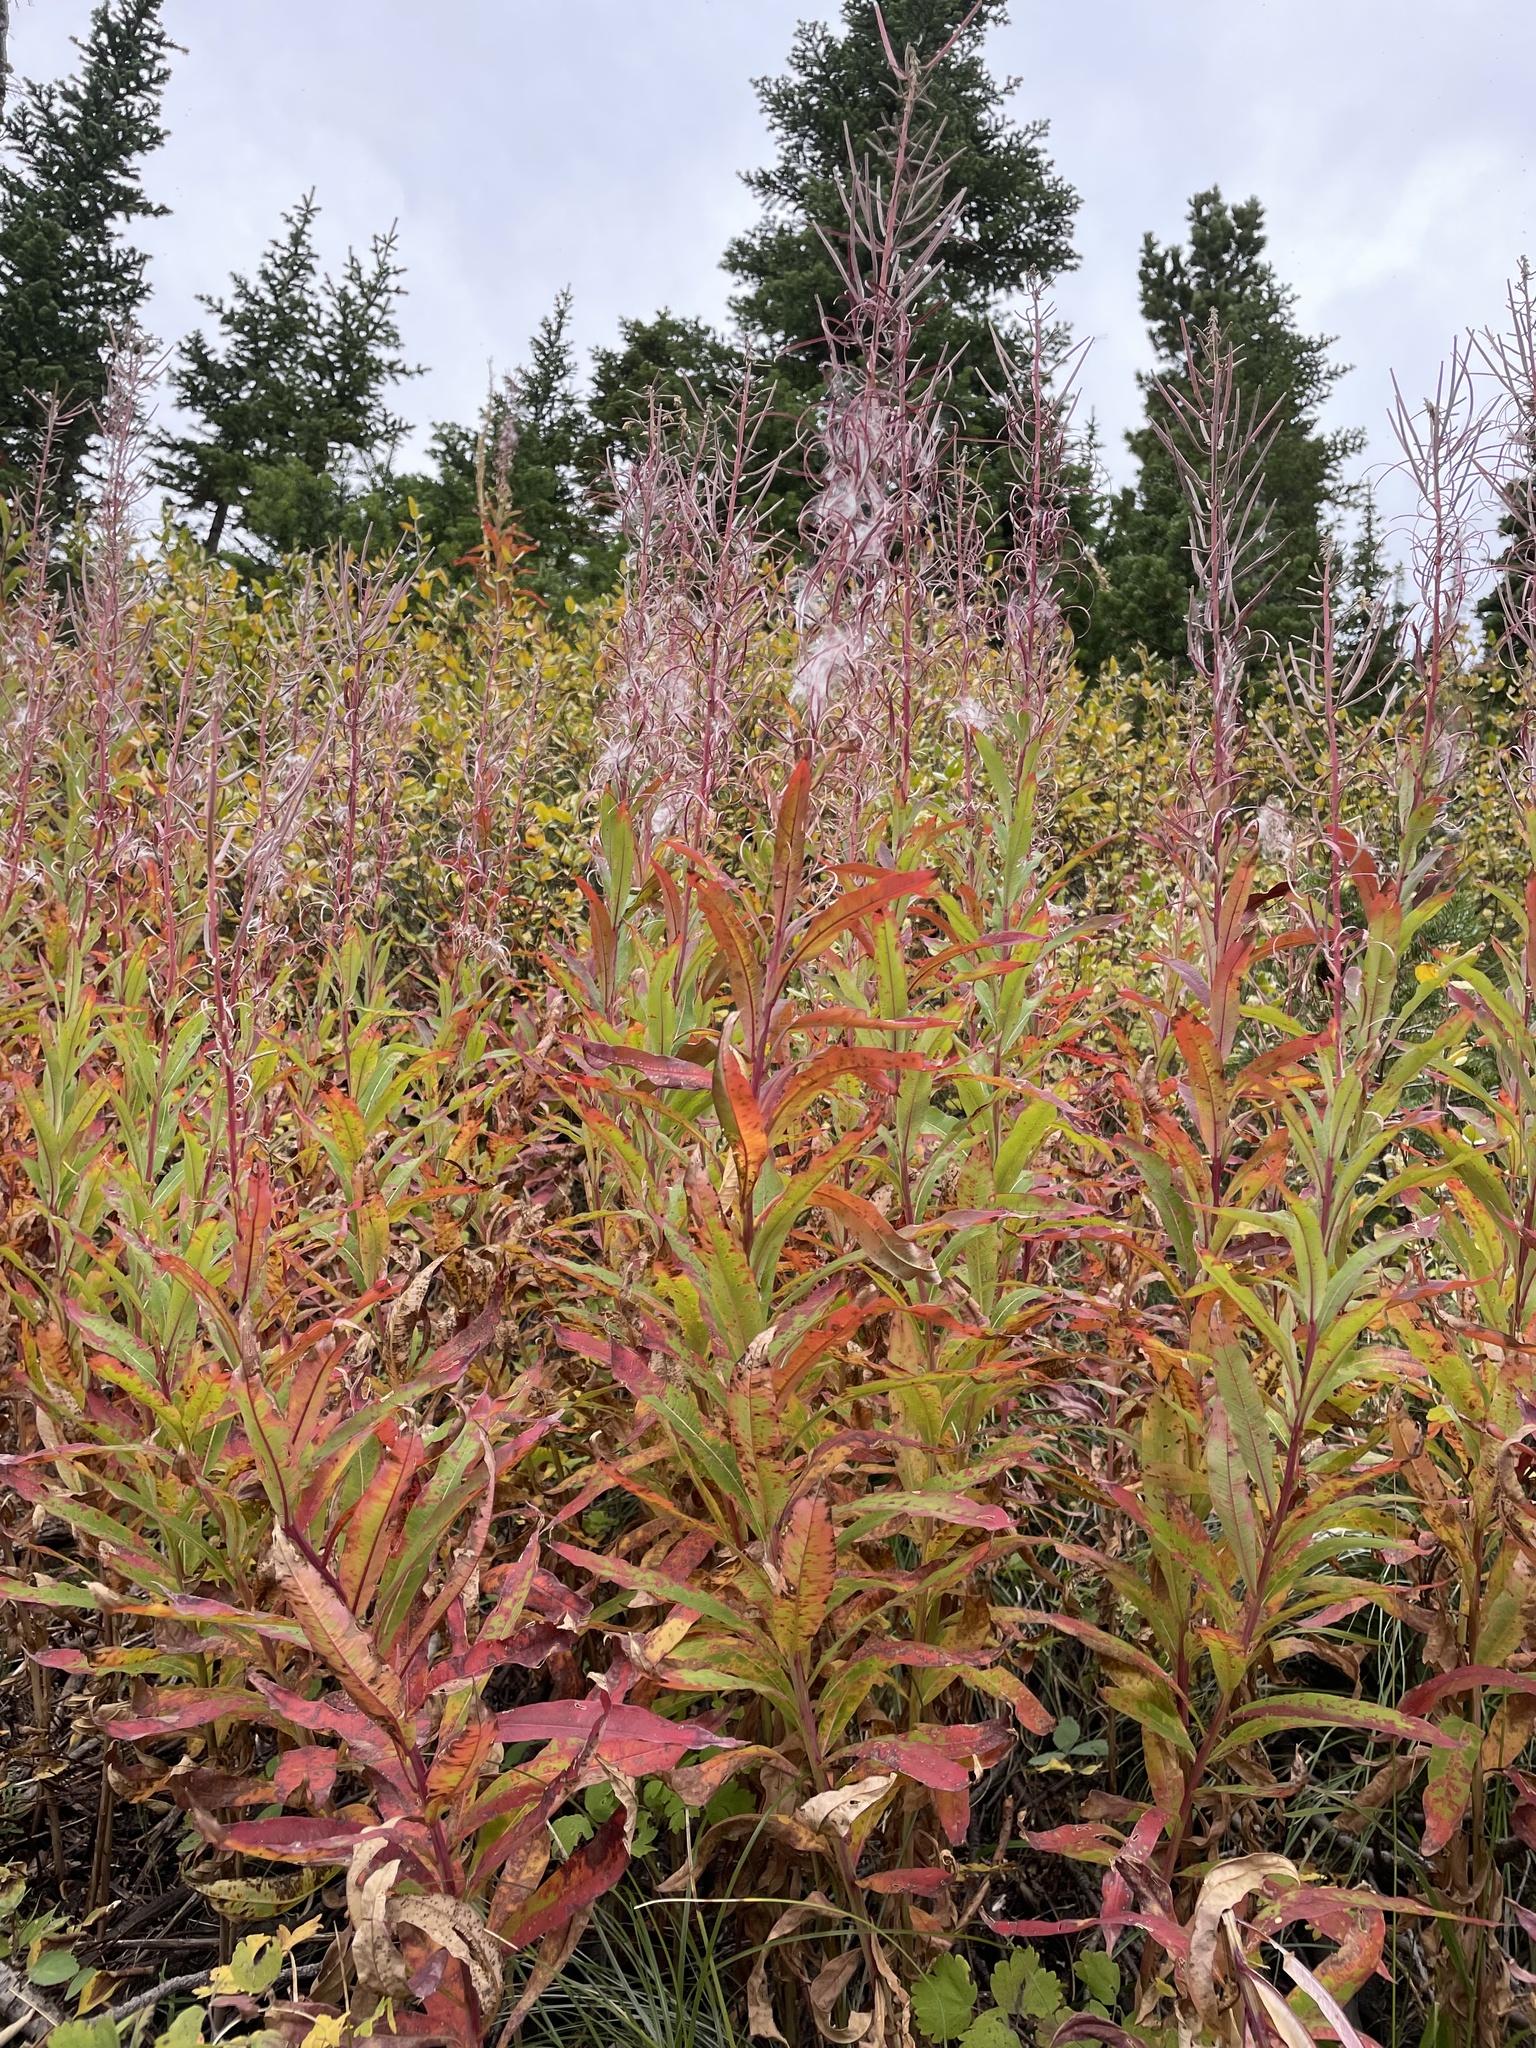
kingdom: Plantae
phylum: Tracheophyta
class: Magnoliopsida
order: Myrtales
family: Onagraceae
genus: Chamaenerion
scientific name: Chamaenerion angustifolium
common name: Fireweed
